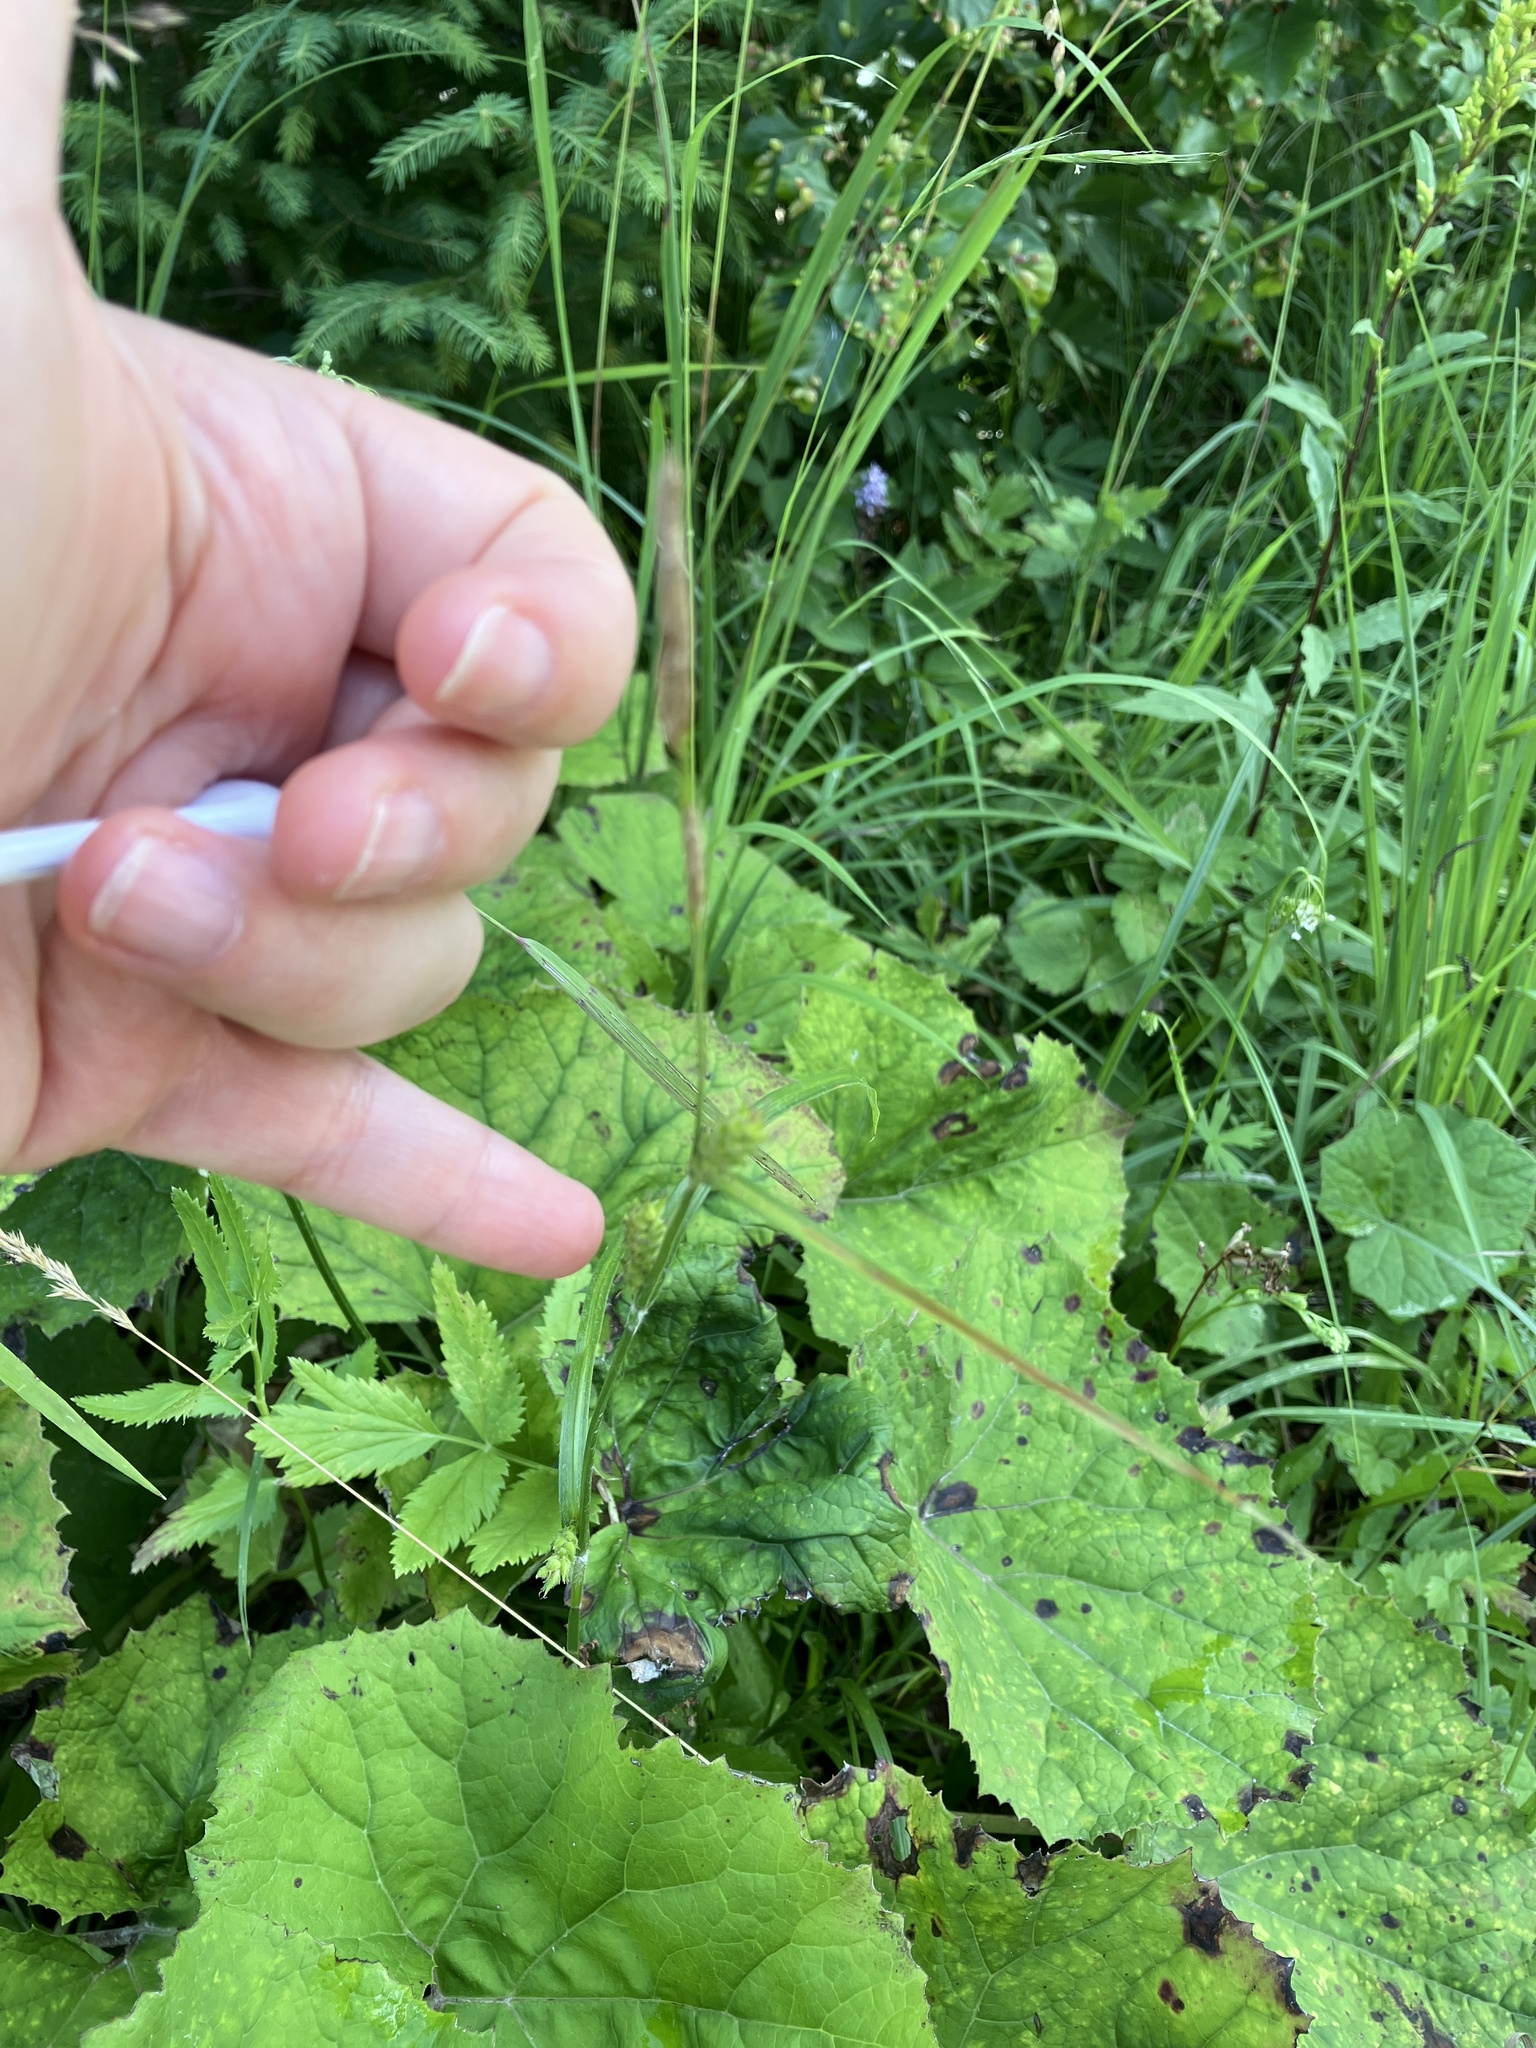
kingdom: Plantae
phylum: Tracheophyta
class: Liliopsida
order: Poales
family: Cyperaceae
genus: Carex
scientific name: Carex hirta
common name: Hairy sedge
